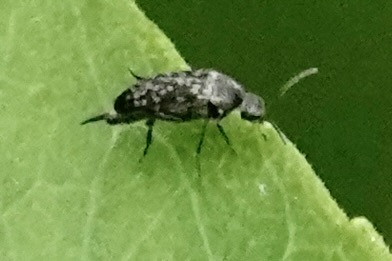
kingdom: Animalia
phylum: Arthropoda
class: Insecta
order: Coleoptera
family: Mordellidae
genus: Mordellina
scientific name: Mordellina pustulata
